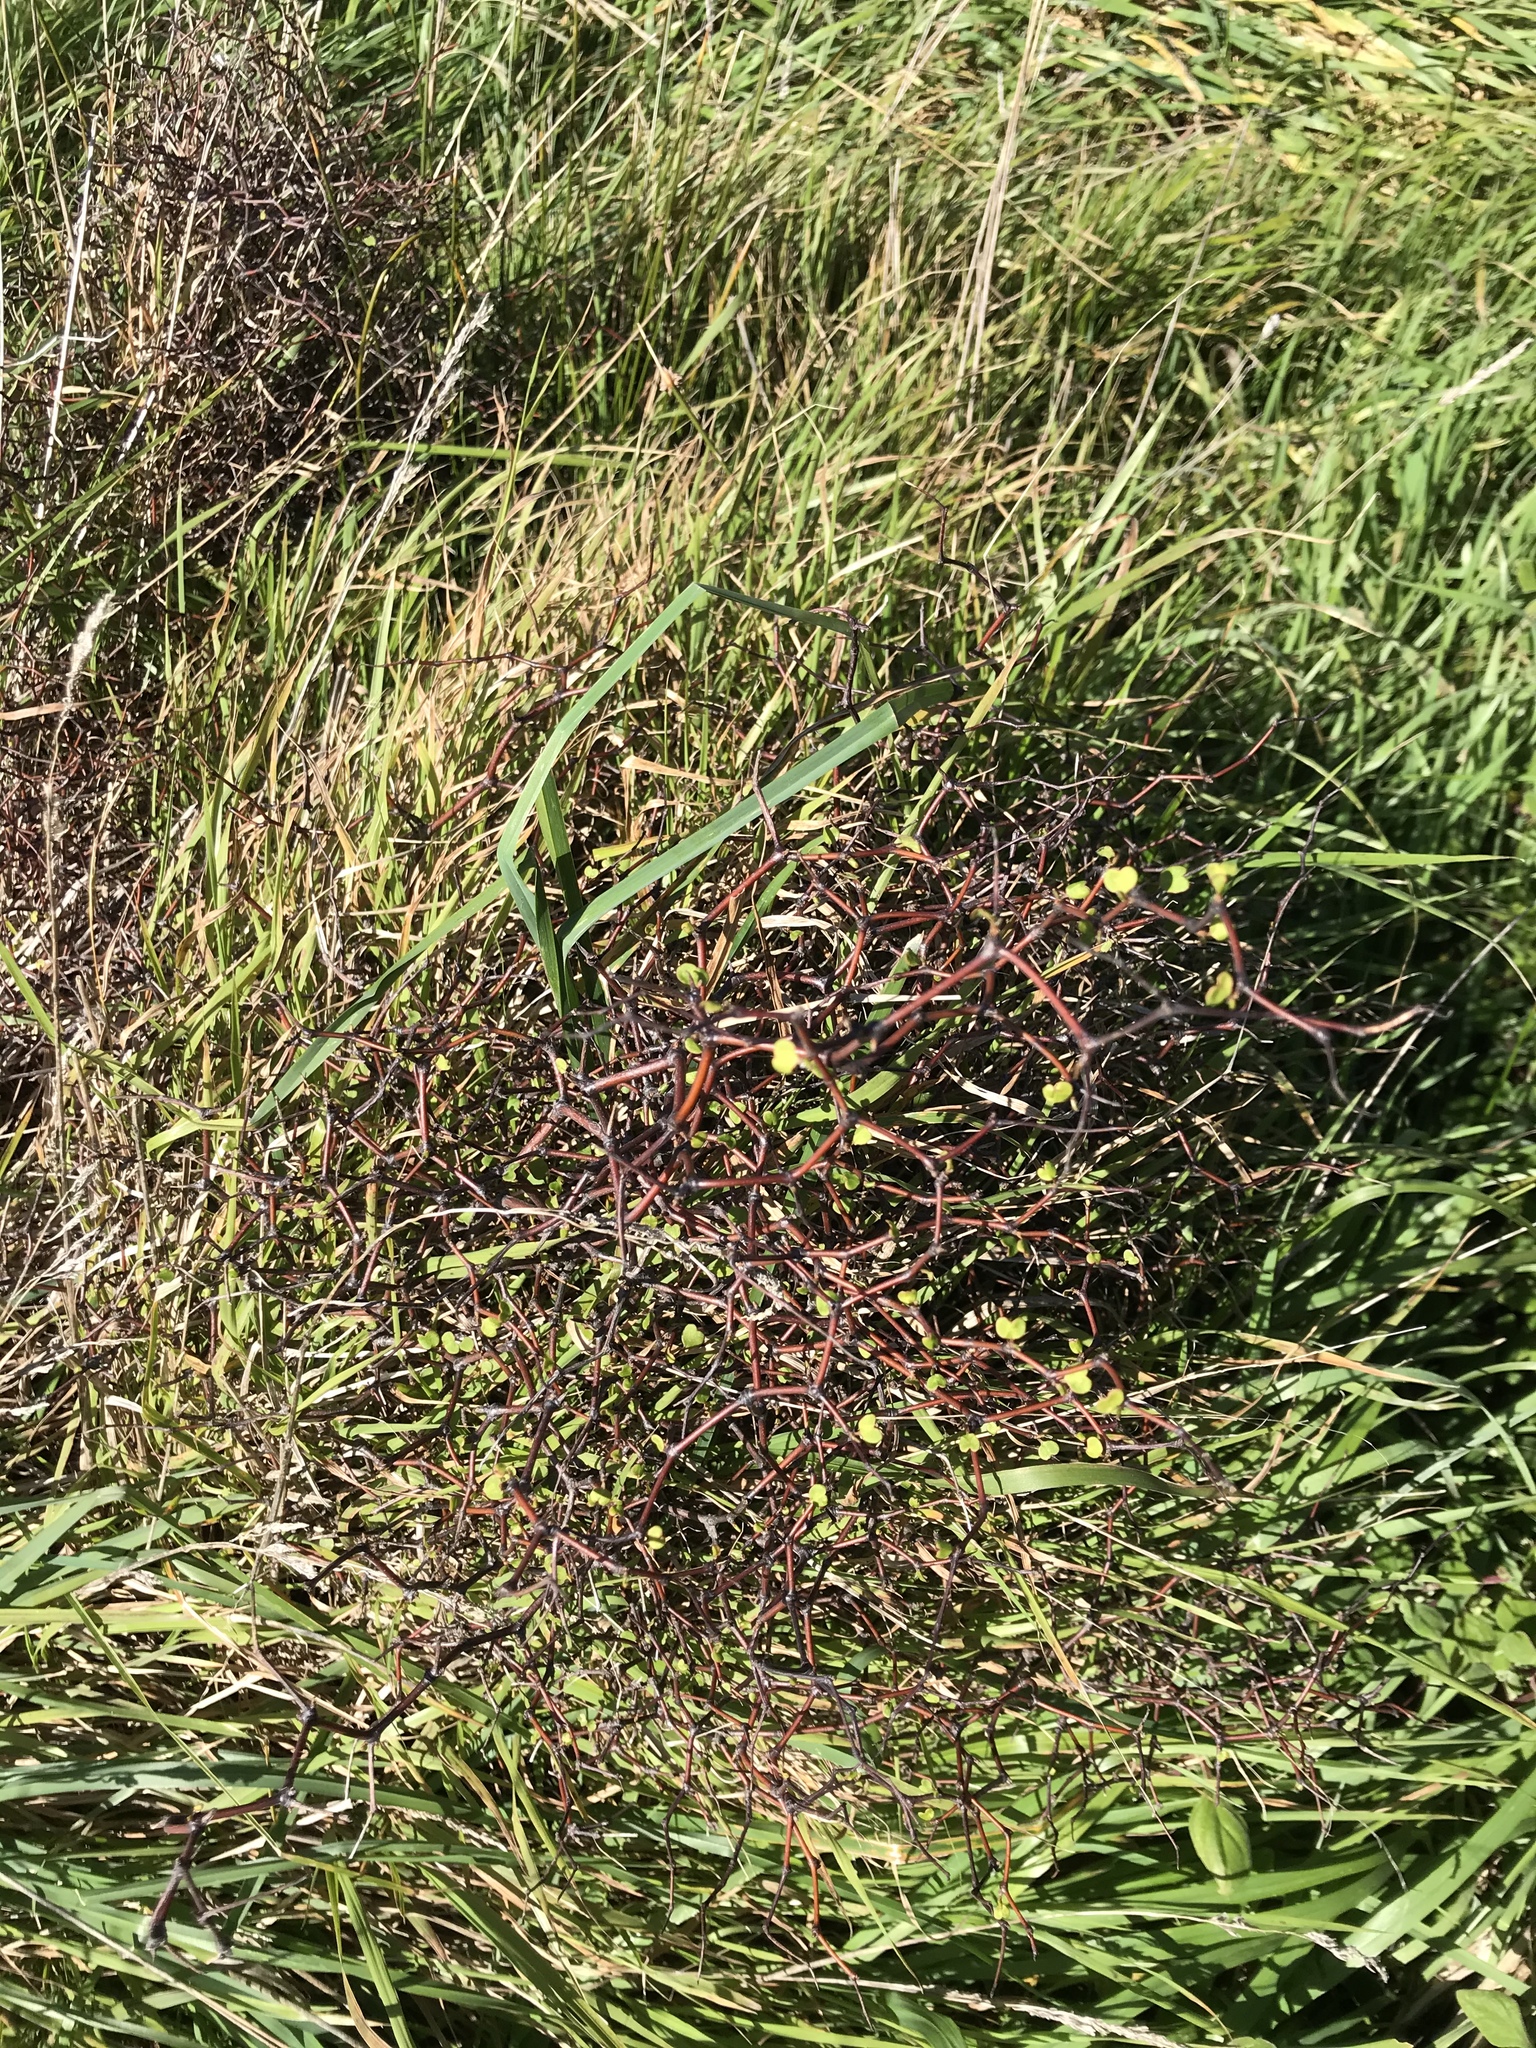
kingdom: Plantae
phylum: Tracheophyta
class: Magnoliopsida
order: Caryophyllales
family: Polygonaceae
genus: Muehlenbeckia
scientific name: Muehlenbeckia astonii
